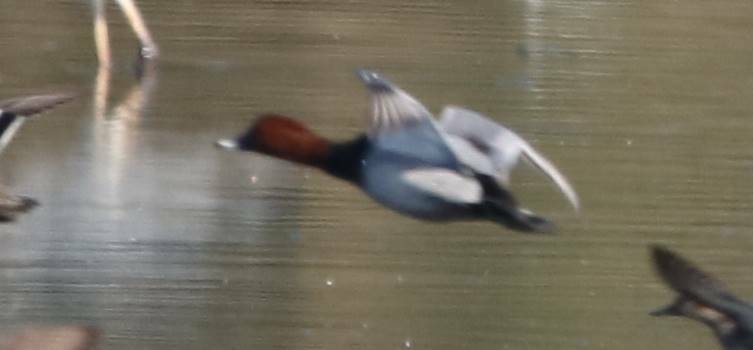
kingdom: Animalia
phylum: Chordata
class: Aves
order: Anseriformes
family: Anatidae
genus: Aythya
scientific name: Aythya ferina
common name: Common pochard
